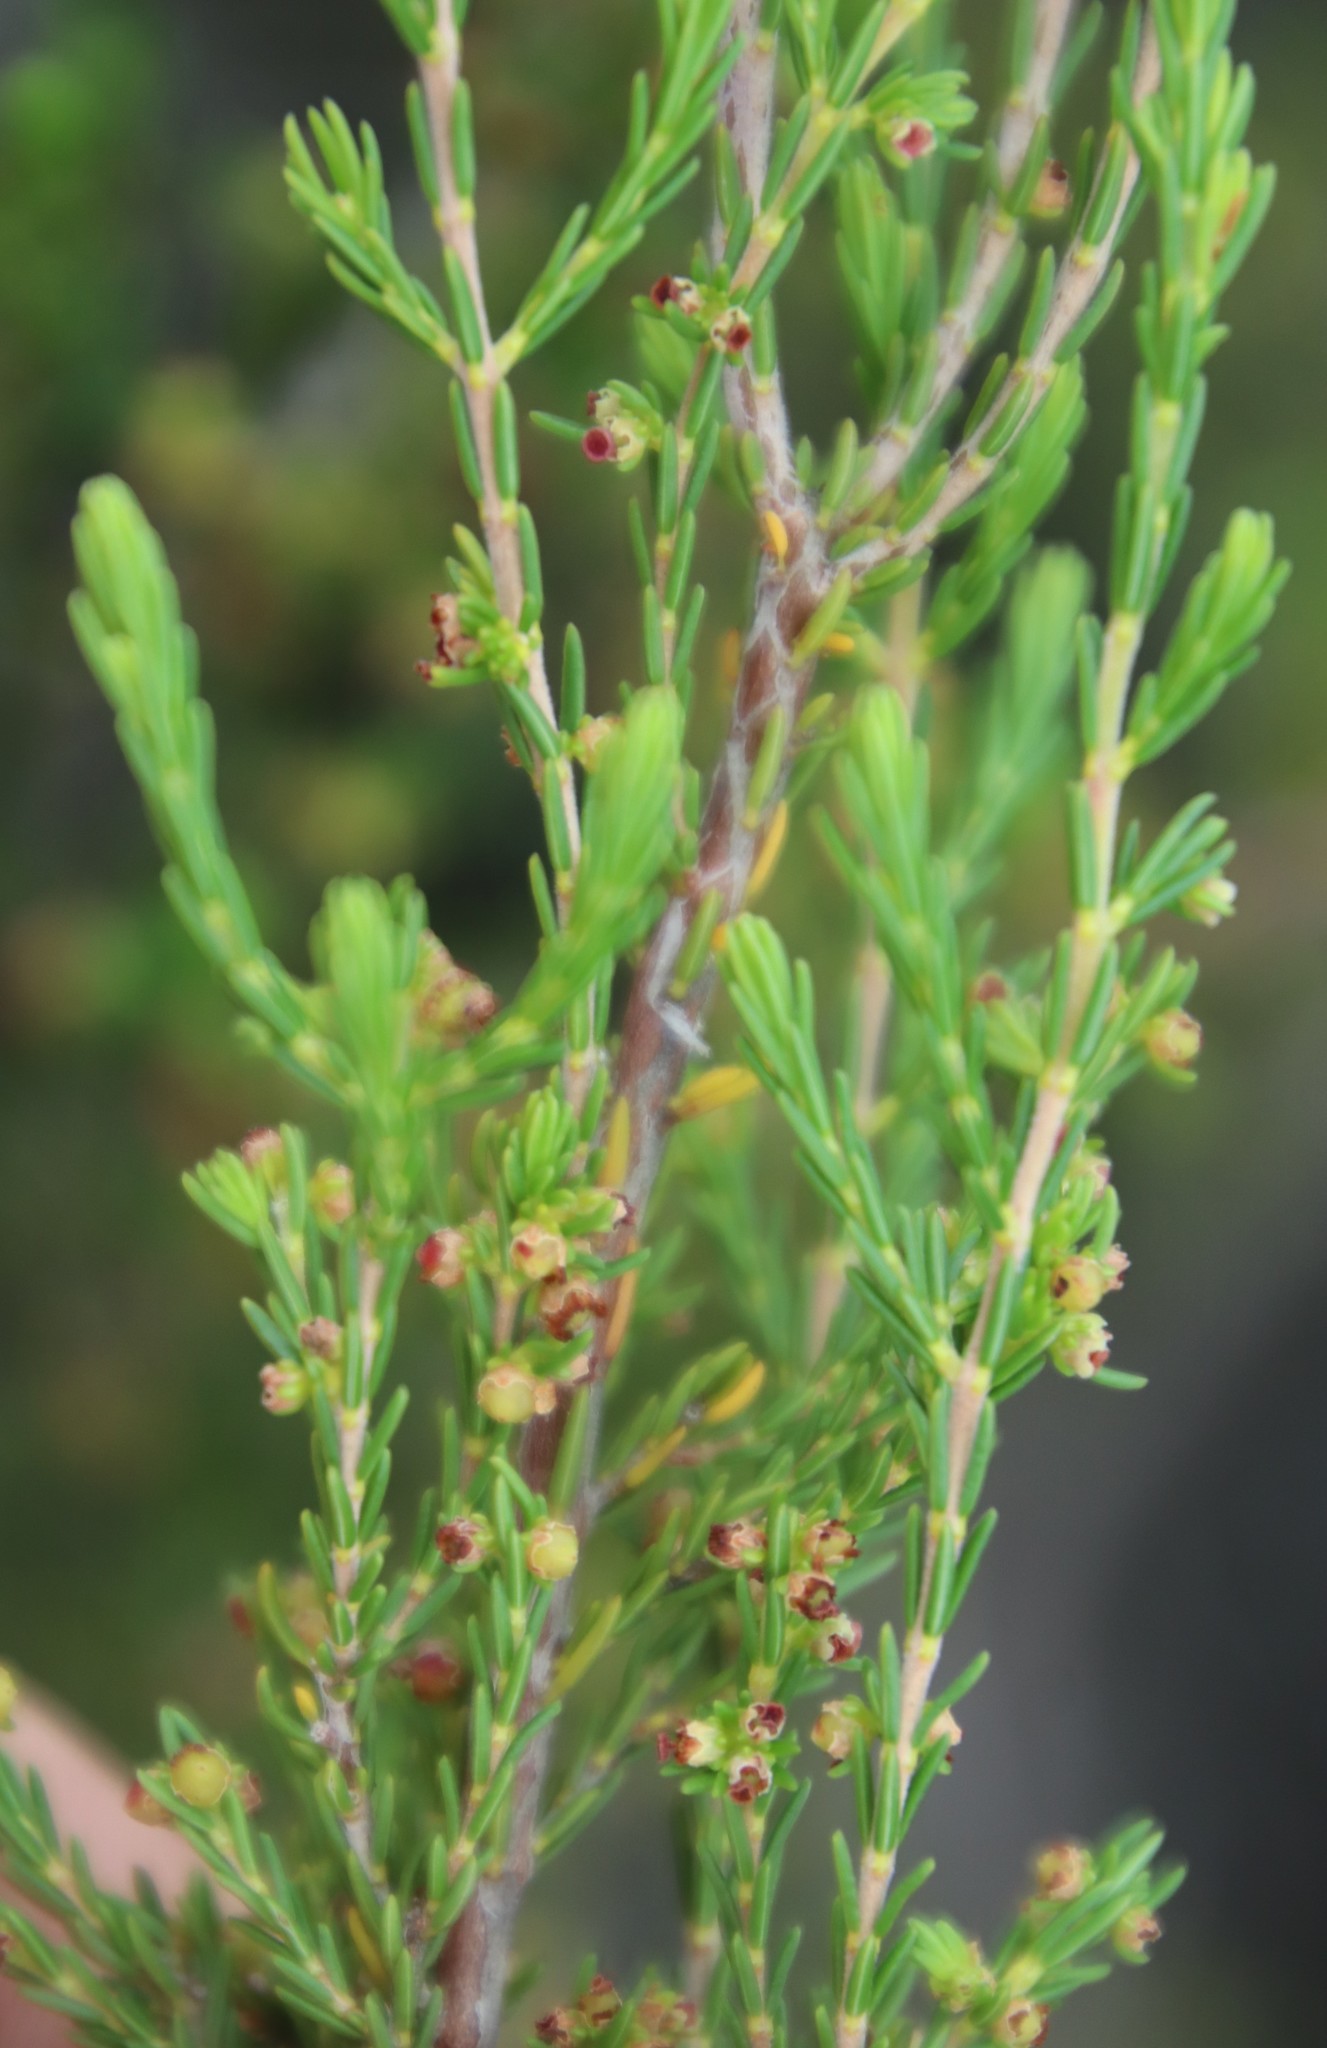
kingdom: Plantae
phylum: Tracheophyta
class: Magnoliopsida
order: Ericales
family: Ericaceae
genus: Erica
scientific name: Erica axillaris
